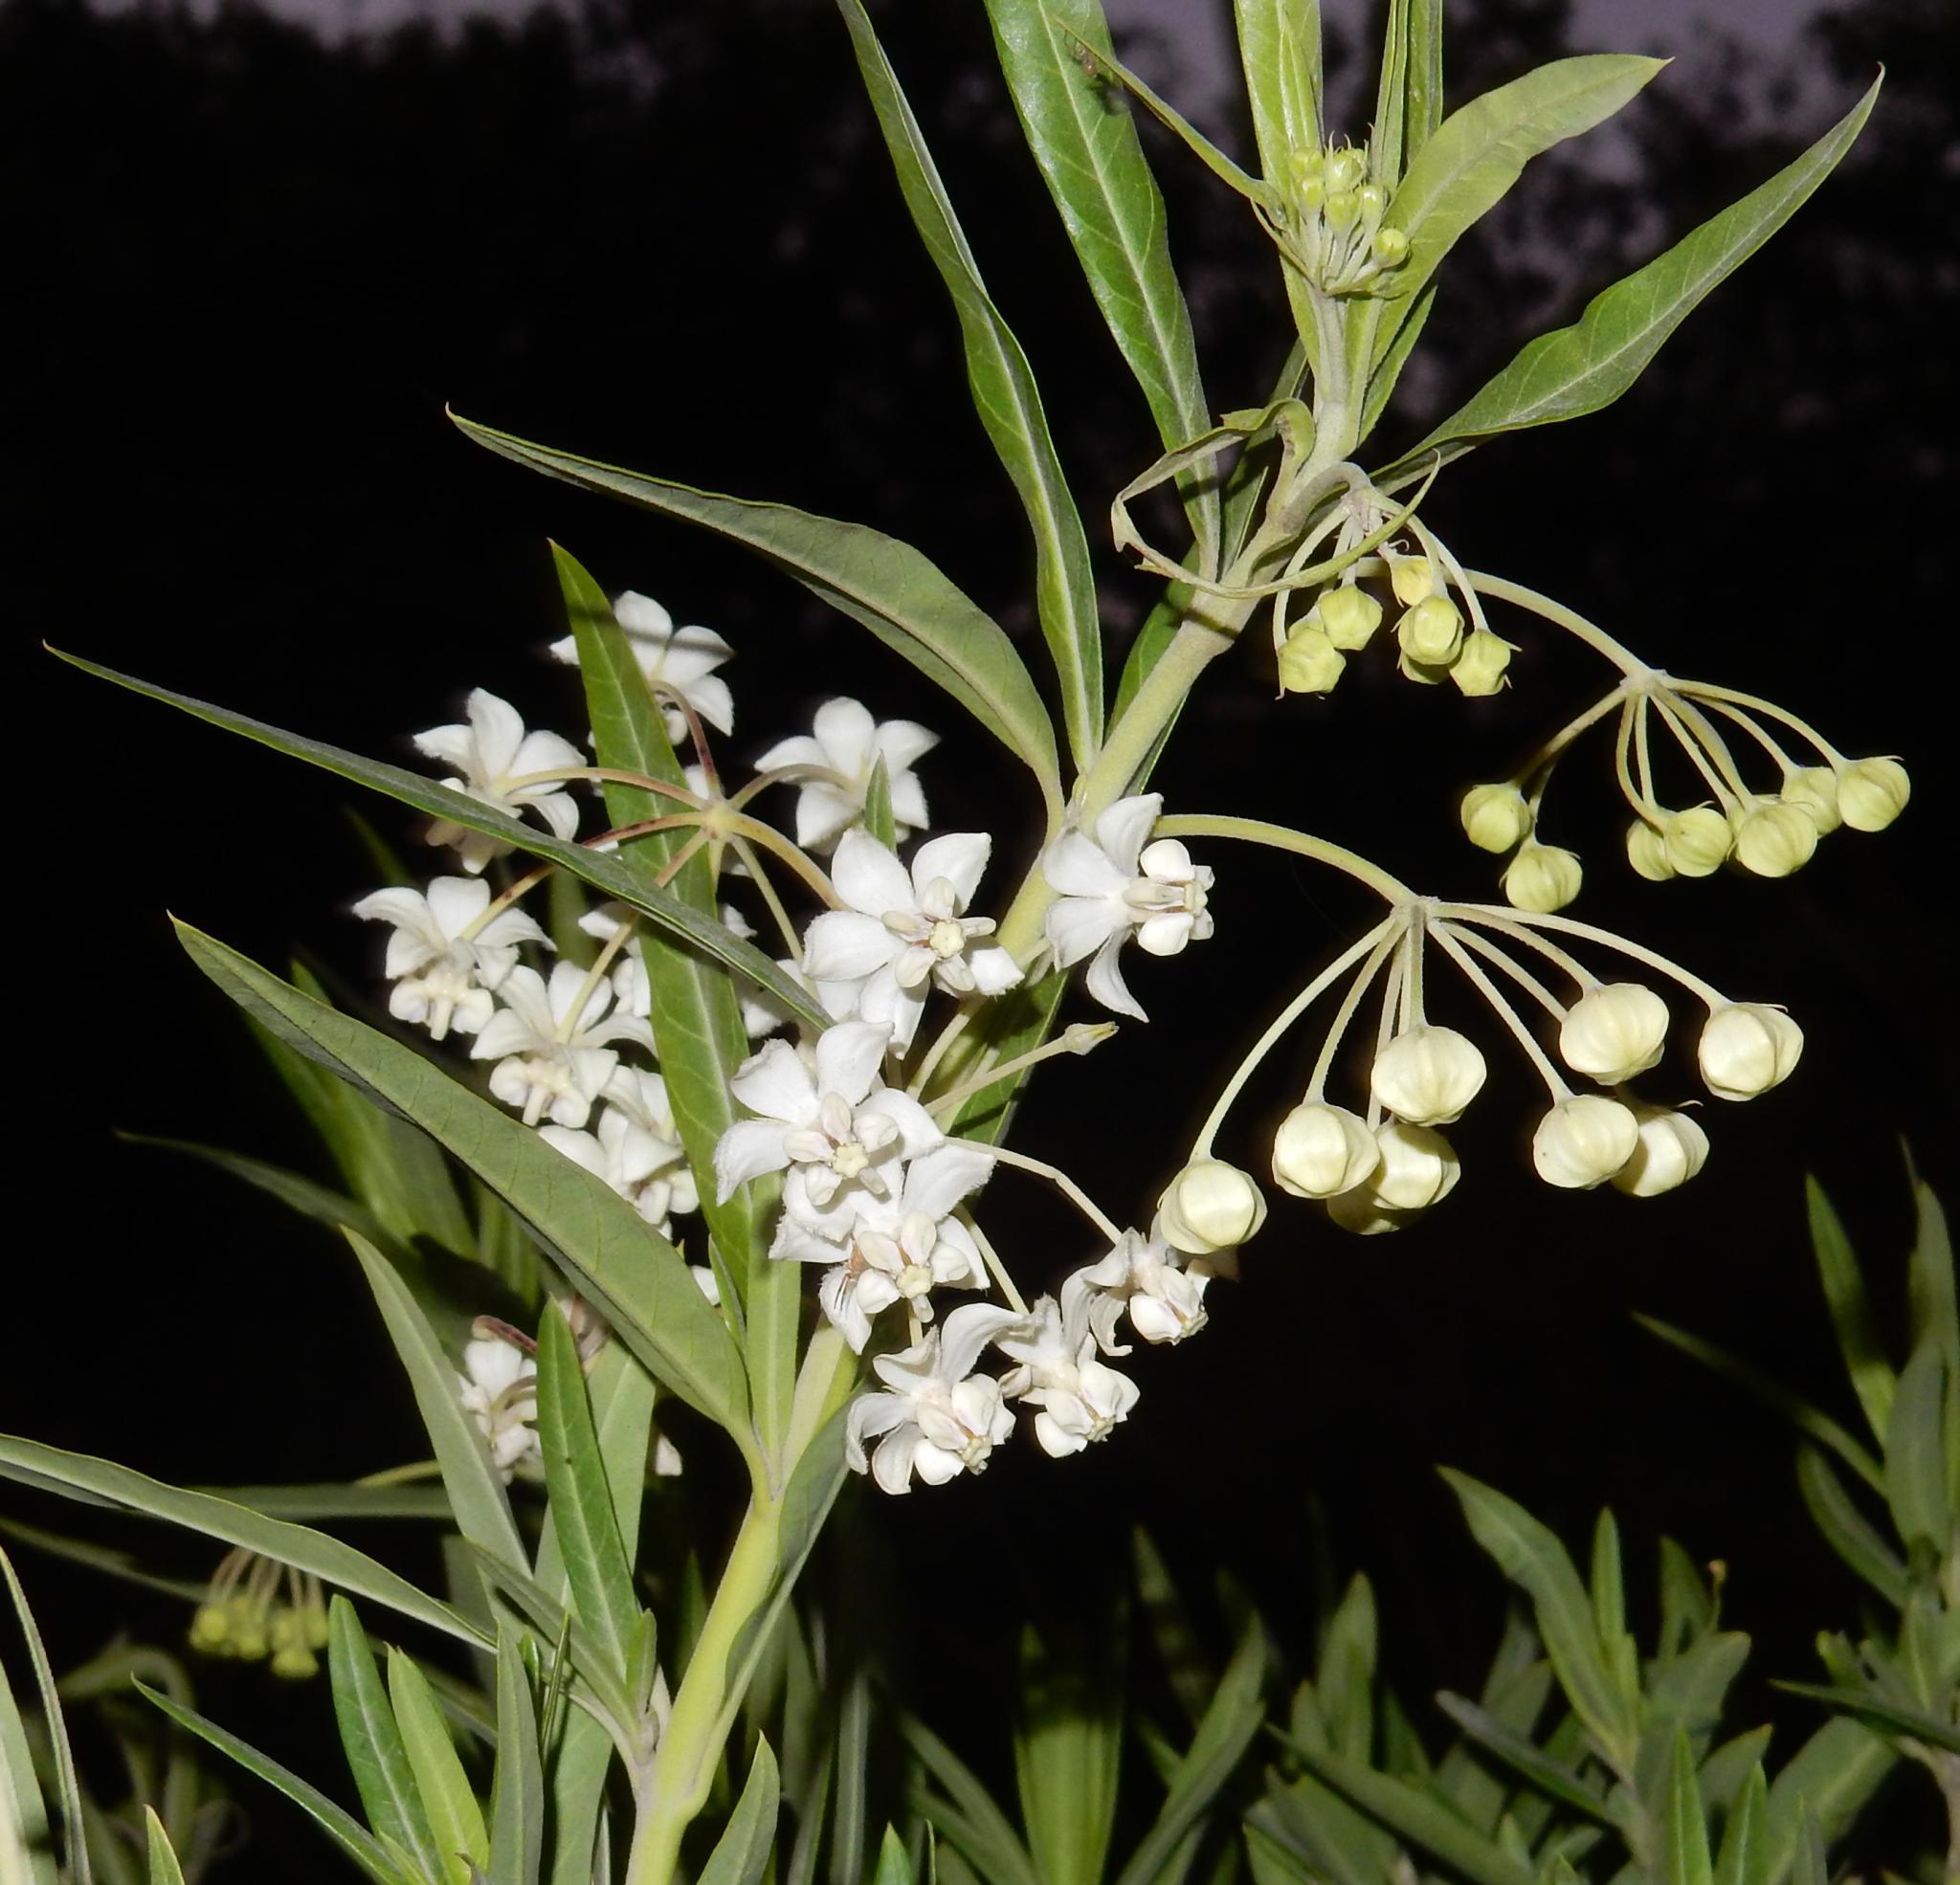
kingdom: Plantae
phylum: Tracheophyta
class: Magnoliopsida
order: Gentianales
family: Apocynaceae
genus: Gomphocarpus
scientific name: Gomphocarpus physocarpus
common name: Balloon cotton bush
